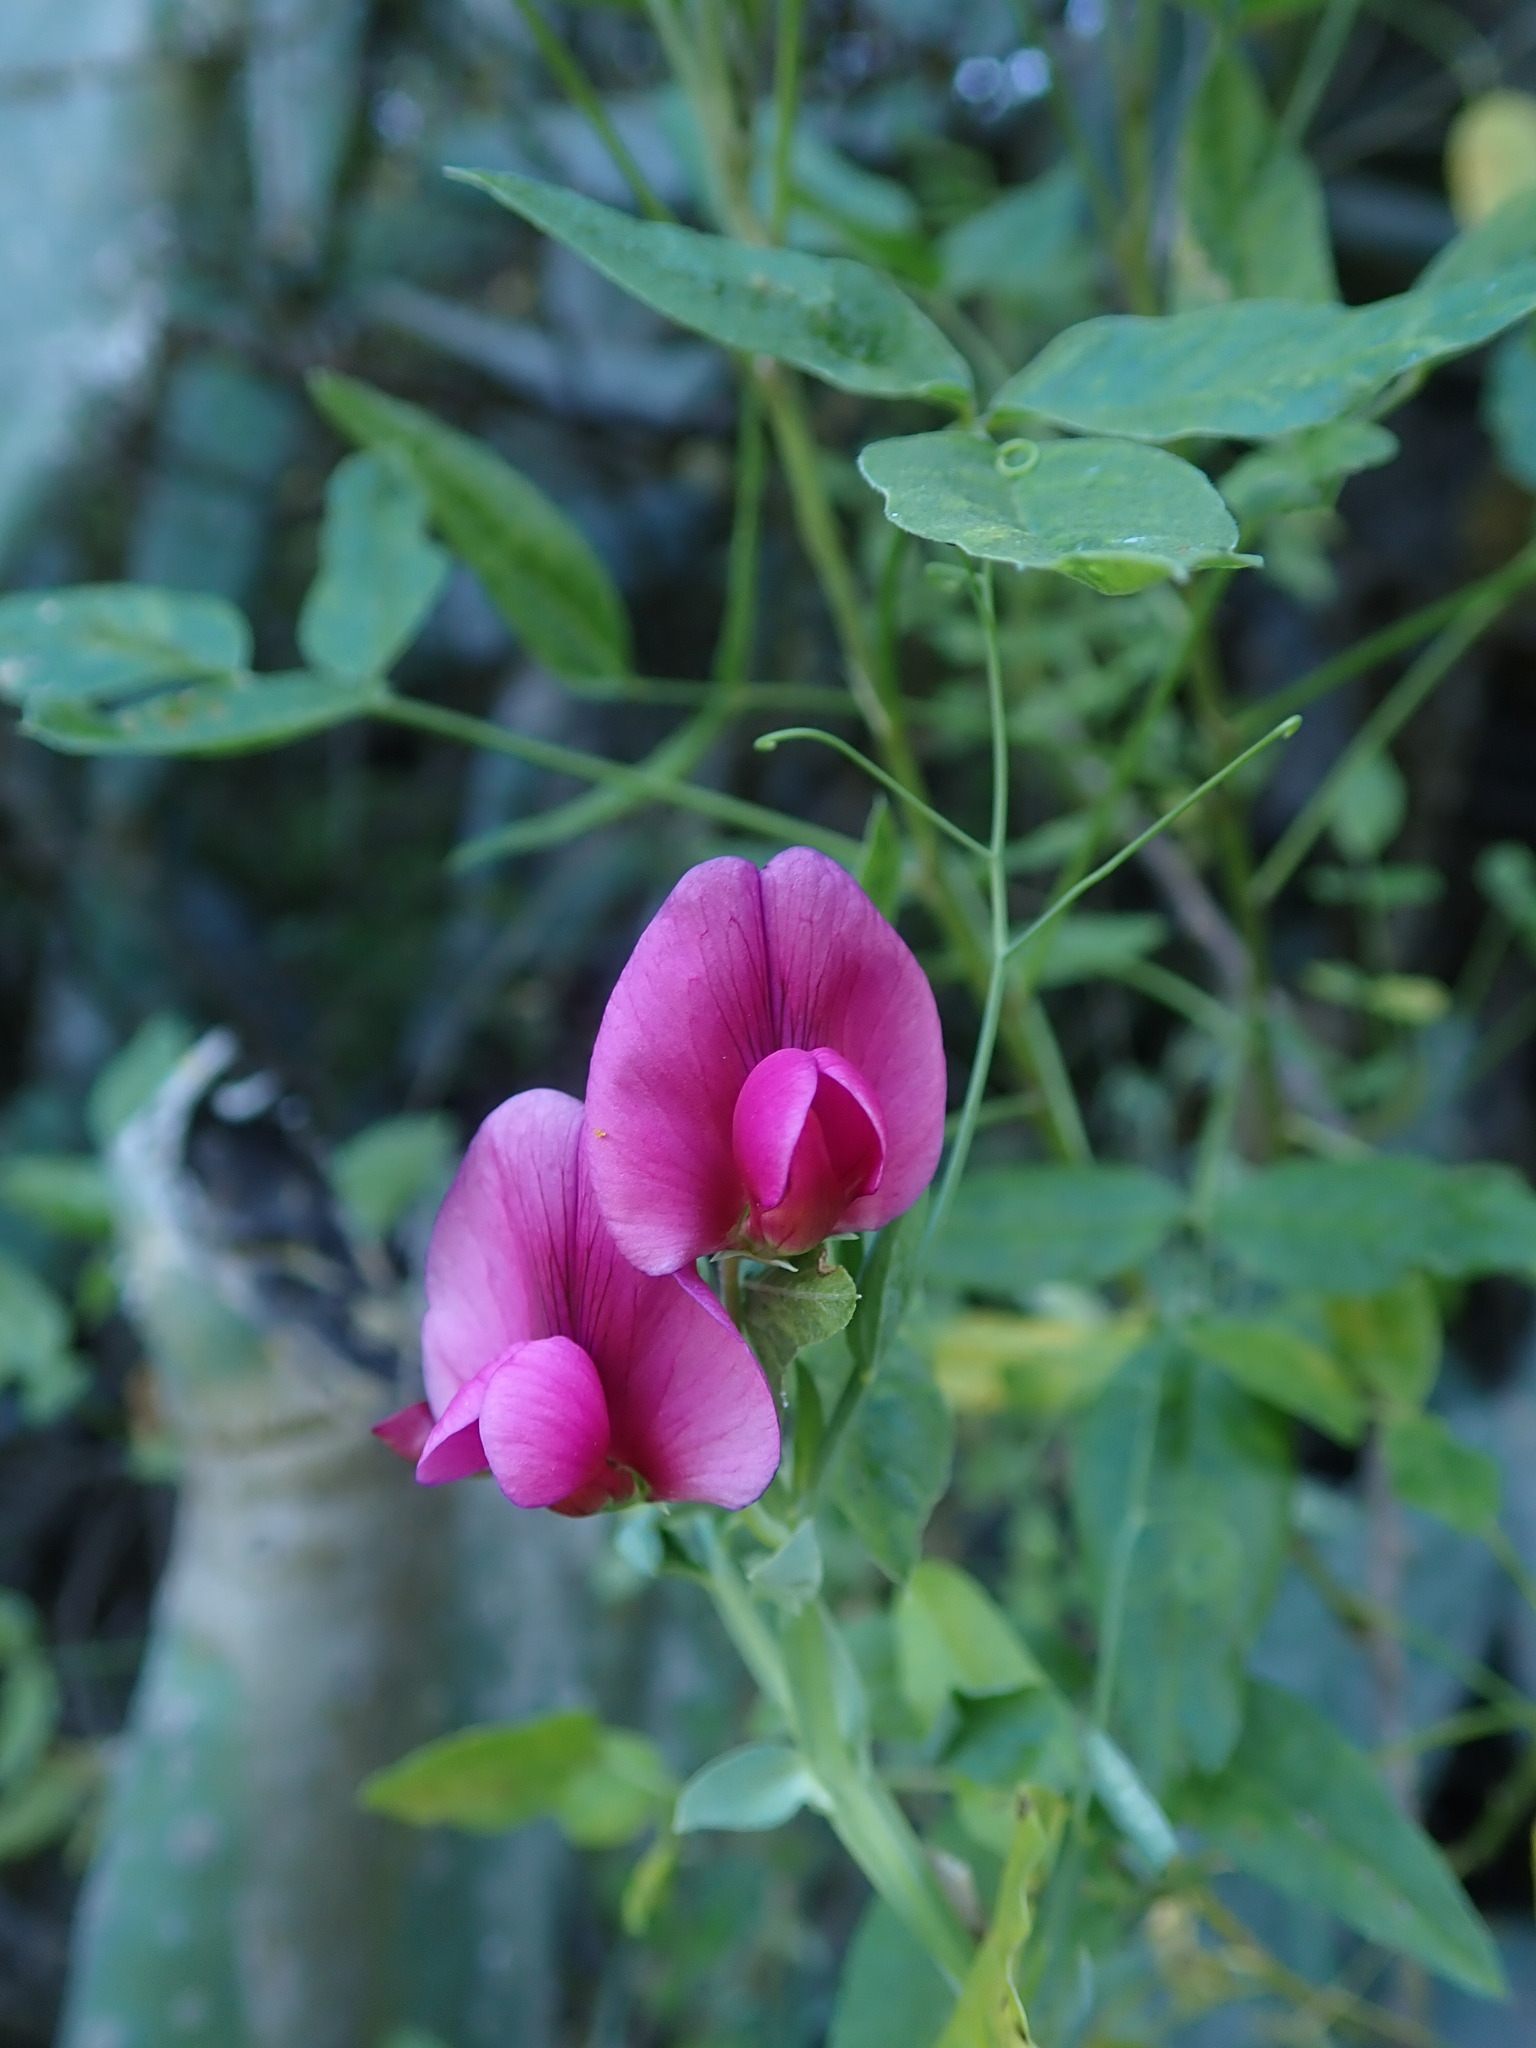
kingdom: Plantae
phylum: Tracheophyta
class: Magnoliopsida
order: Fabales
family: Fabaceae
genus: Lathyrus
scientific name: Lathyrus tingitanus
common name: Tangier pea
